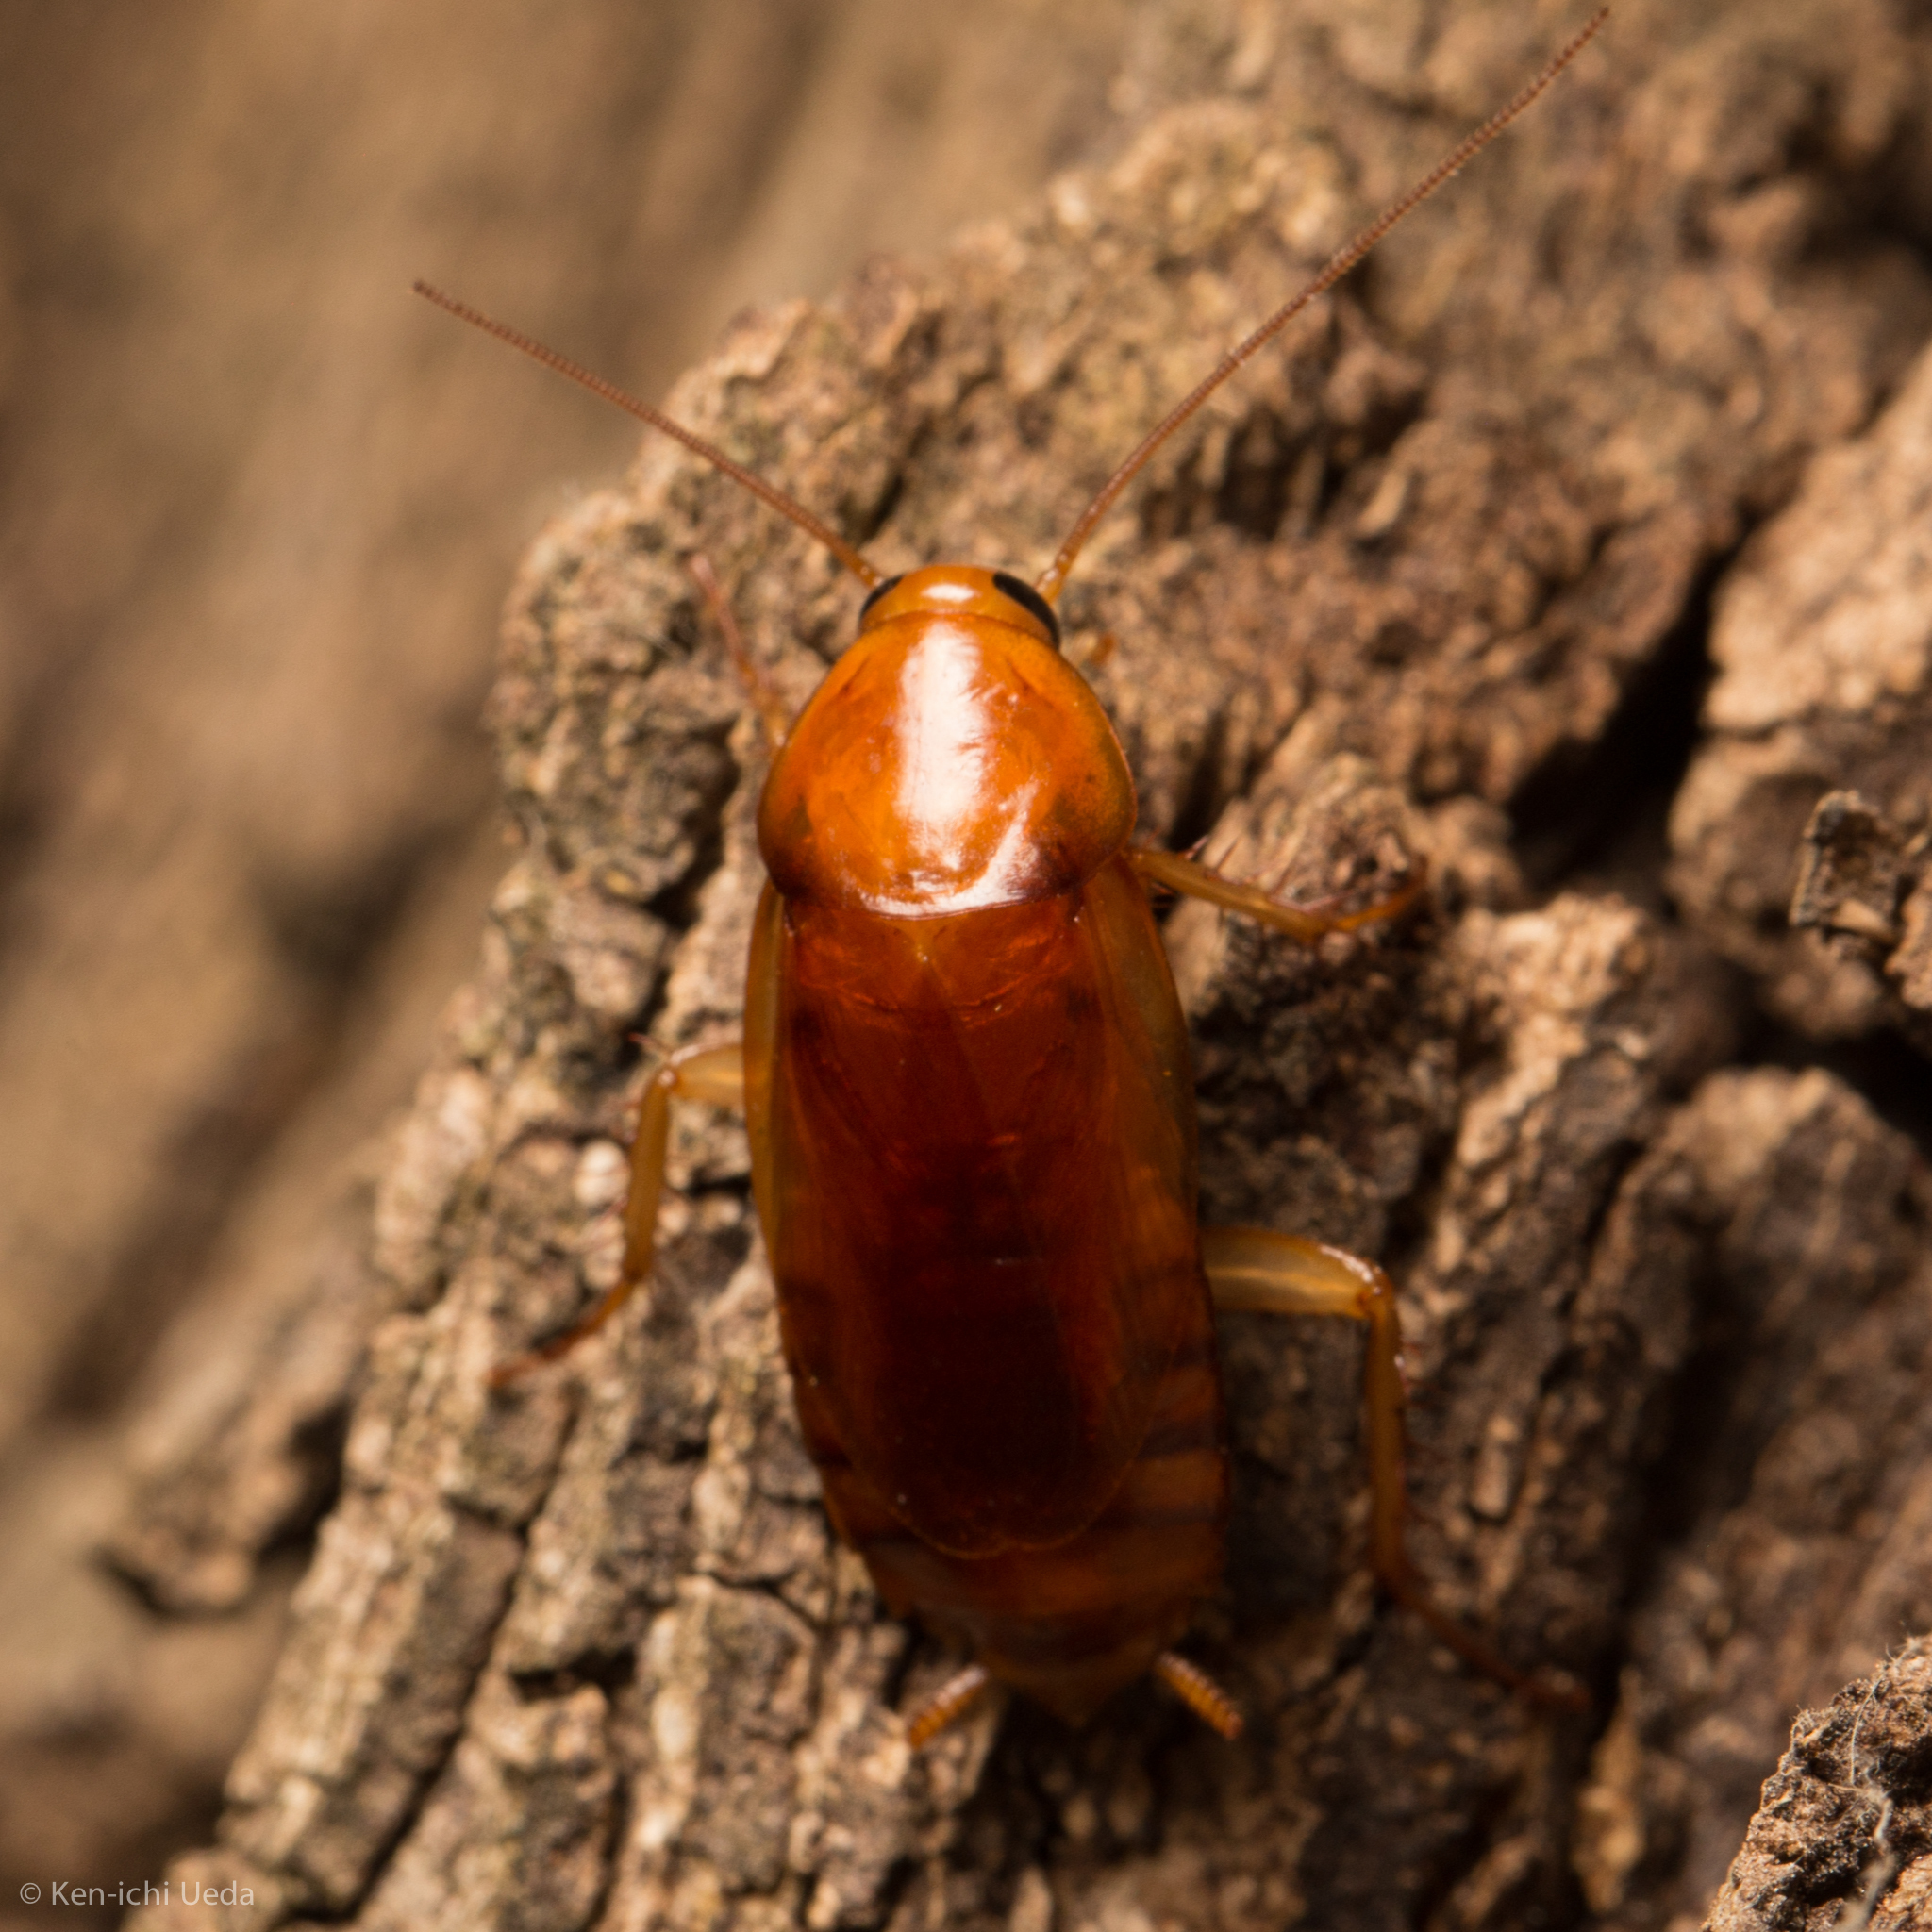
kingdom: Animalia
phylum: Arthropoda
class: Insecta
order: Blattodea
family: Ectobiidae
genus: Parcoblatta
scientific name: Parcoblatta notha
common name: Arizona wood cockroach
